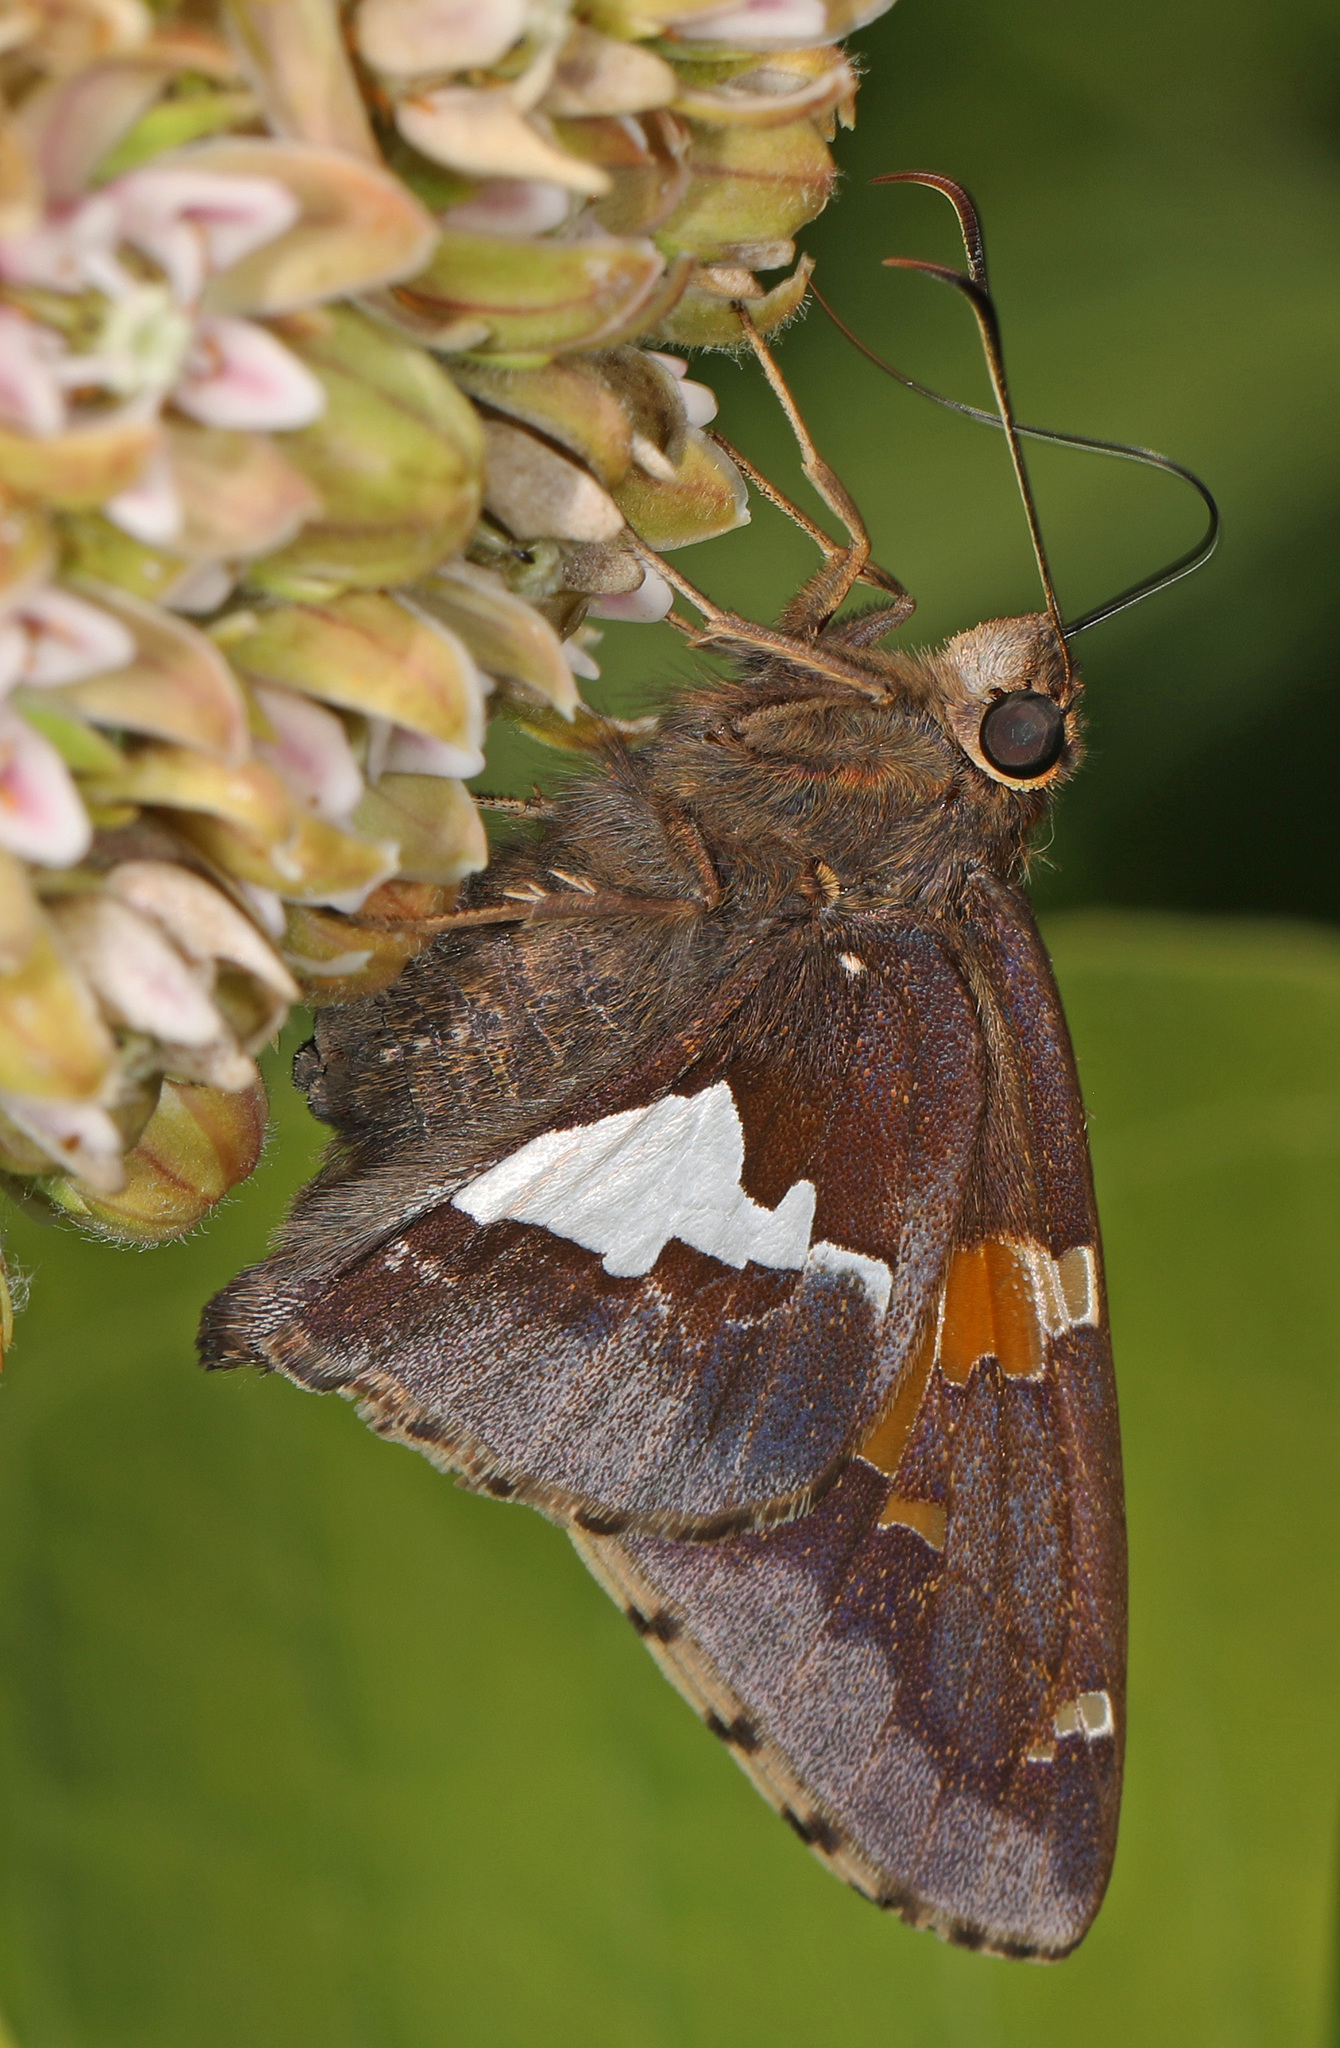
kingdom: Animalia
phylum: Arthropoda
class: Insecta
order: Lepidoptera
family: Hesperiidae
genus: Epargyreus
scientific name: Epargyreus clarus
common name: Silver-spotted skipper
